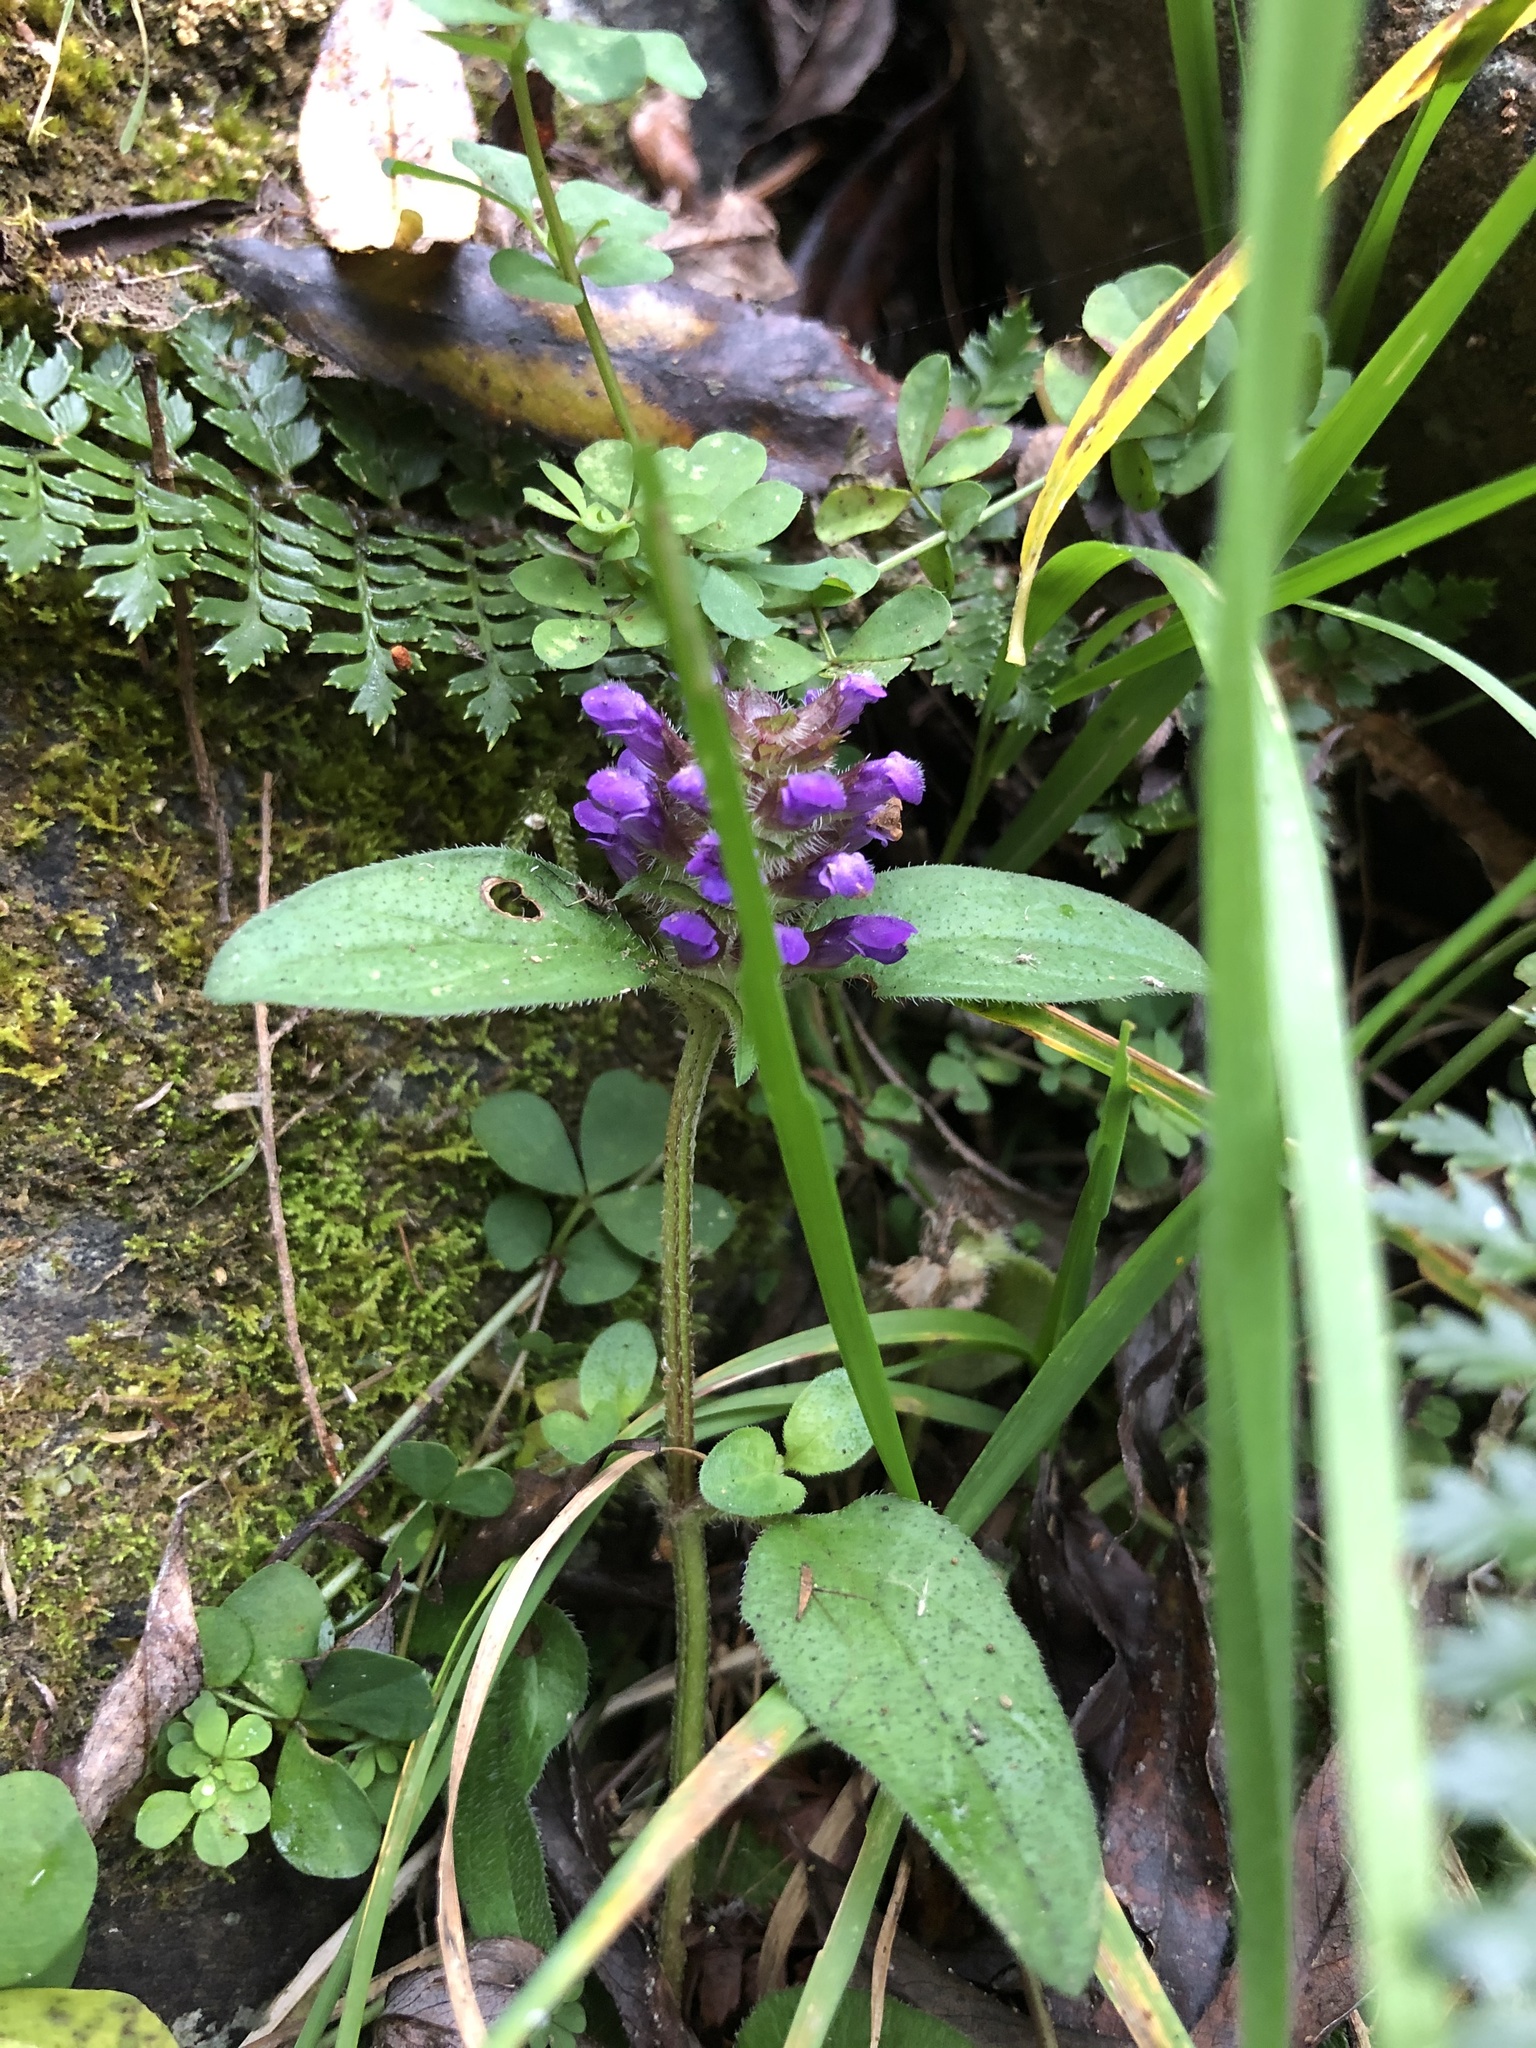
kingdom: Plantae
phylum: Tracheophyta
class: Magnoliopsida
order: Lamiales
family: Lamiaceae
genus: Prunella
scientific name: Prunella vulgaris
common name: Heal-all
